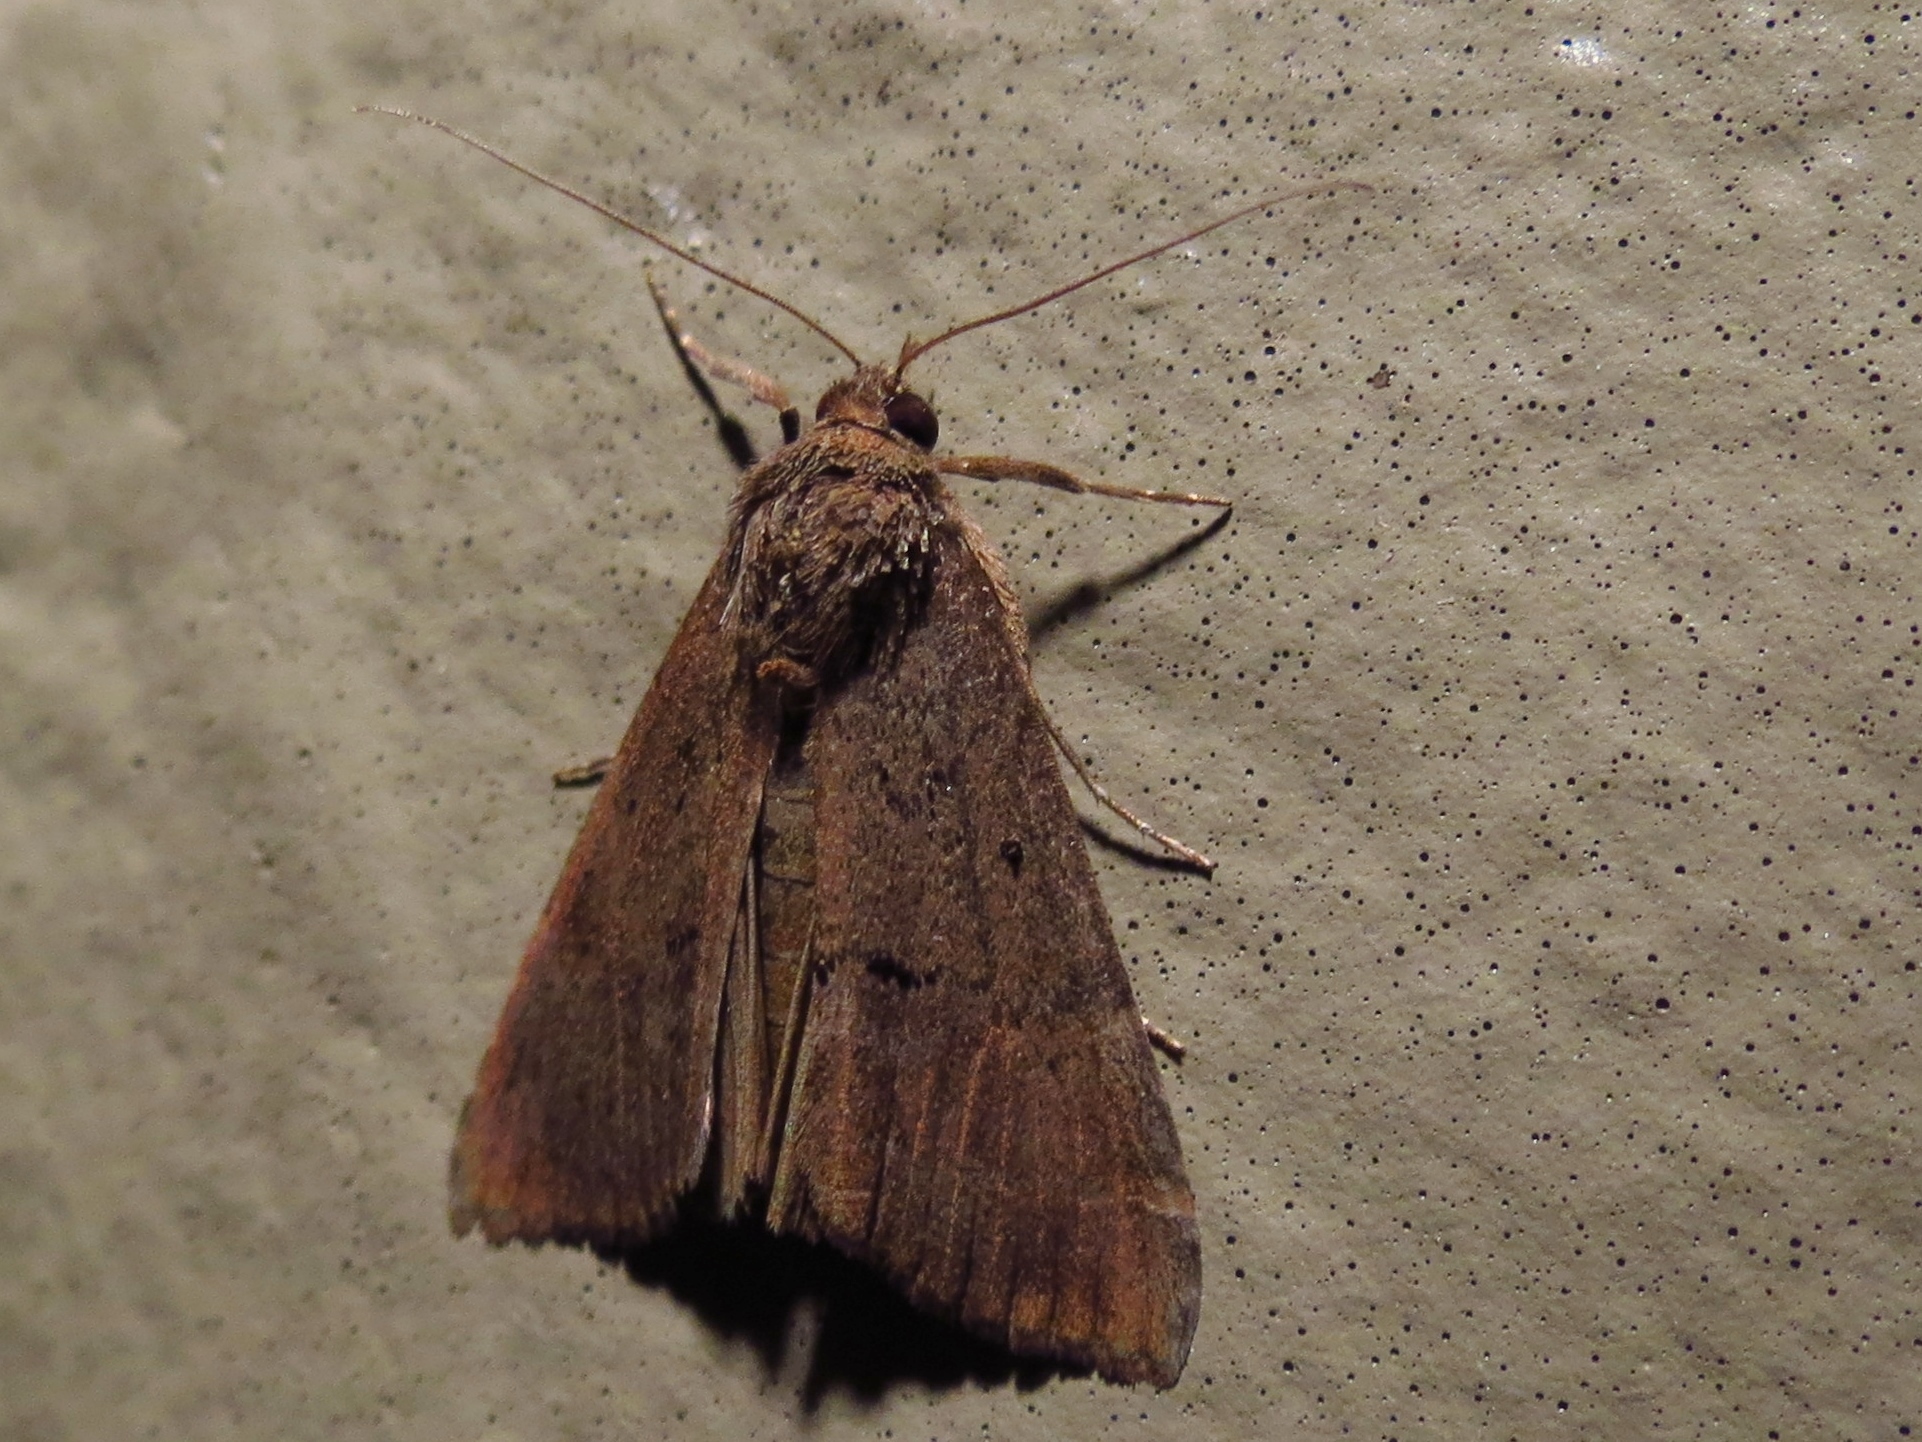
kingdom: Animalia
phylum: Arthropoda
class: Insecta
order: Lepidoptera
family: Erebidae
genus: Hypena
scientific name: Hypena scabra
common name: Green cloverworm
